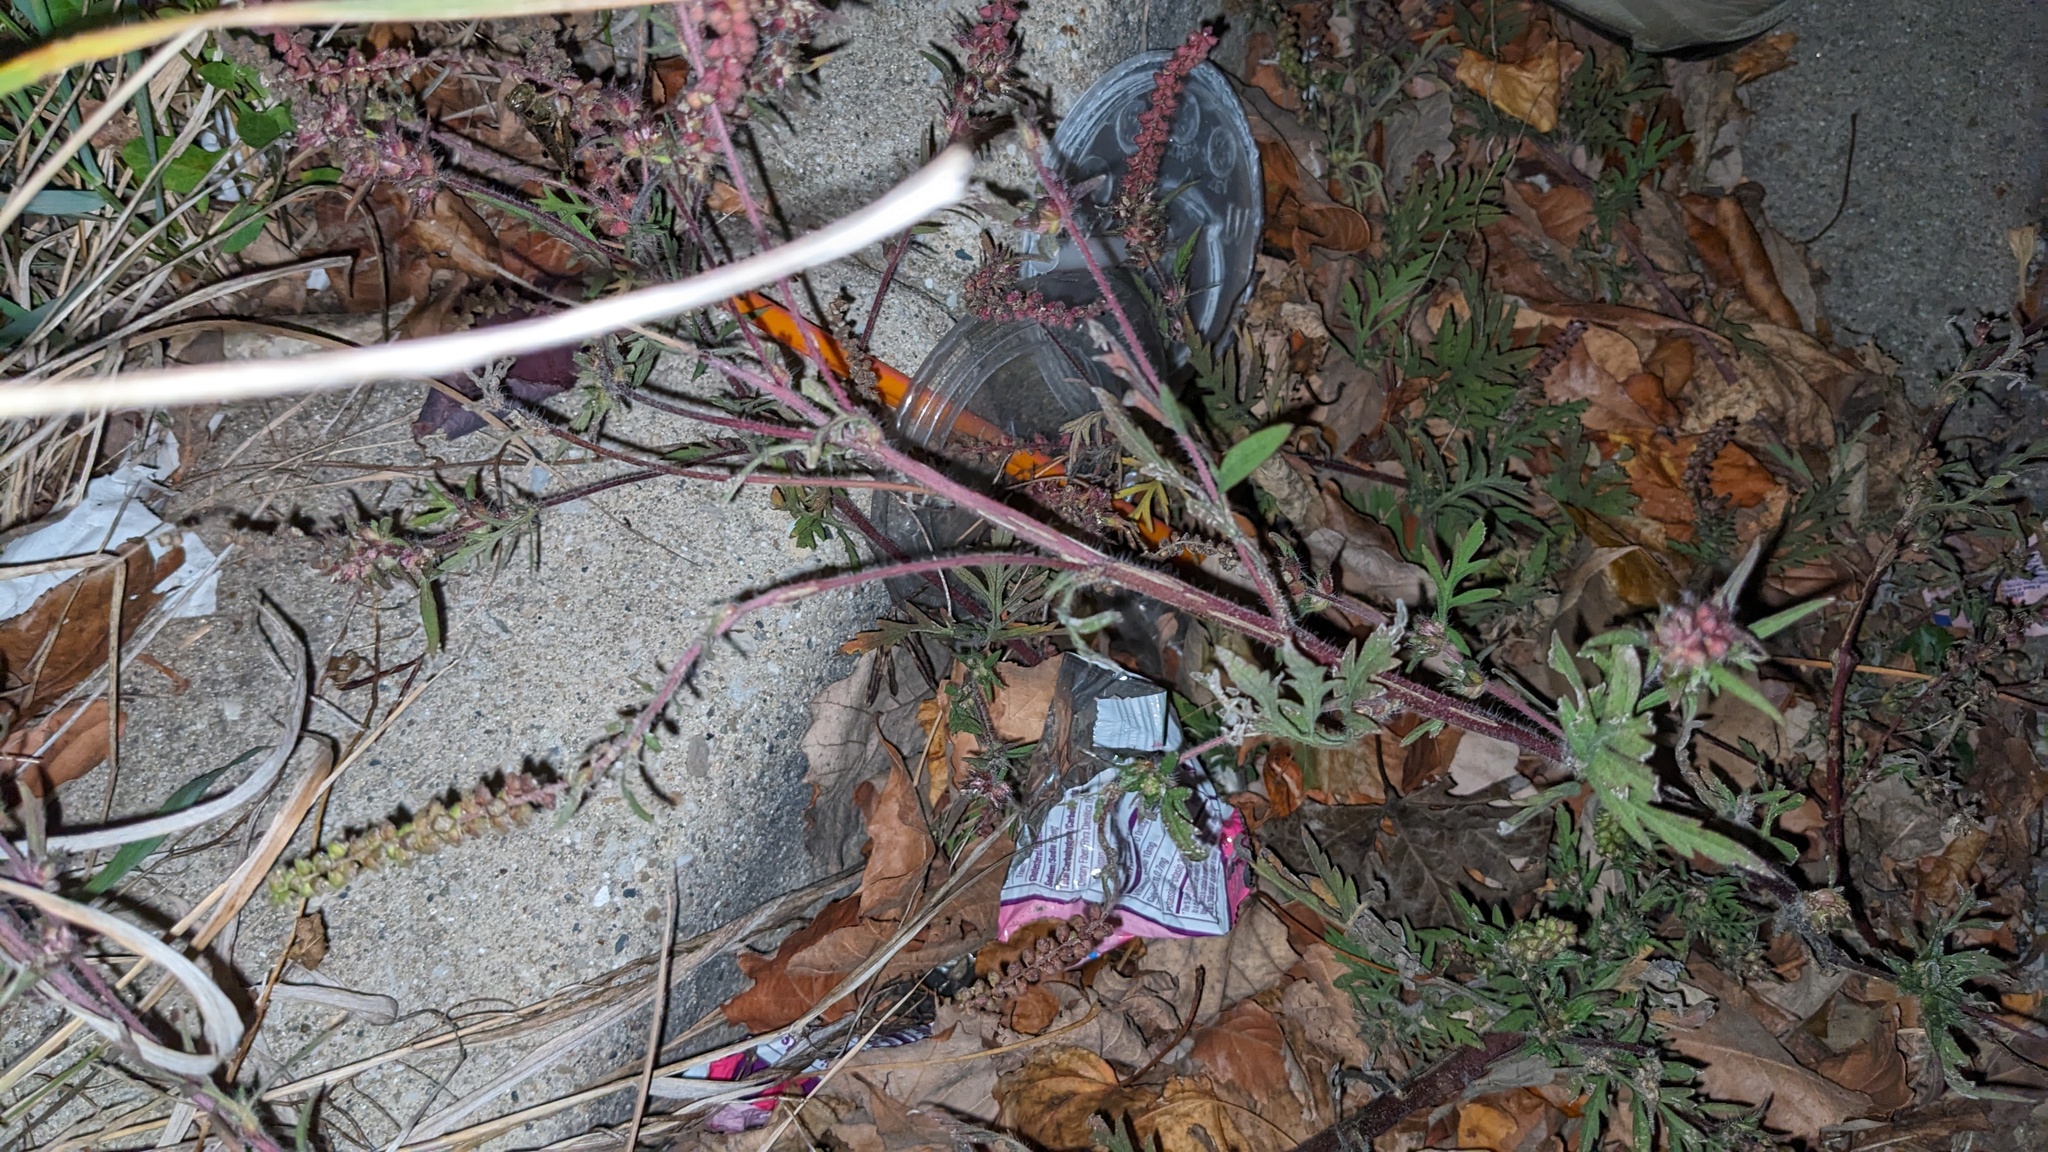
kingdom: Plantae
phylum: Tracheophyta
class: Magnoliopsida
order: Asterales
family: Asteraceae
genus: Ambrosia
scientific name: Ambrosia artemisiifolia
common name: Annual ragweed
